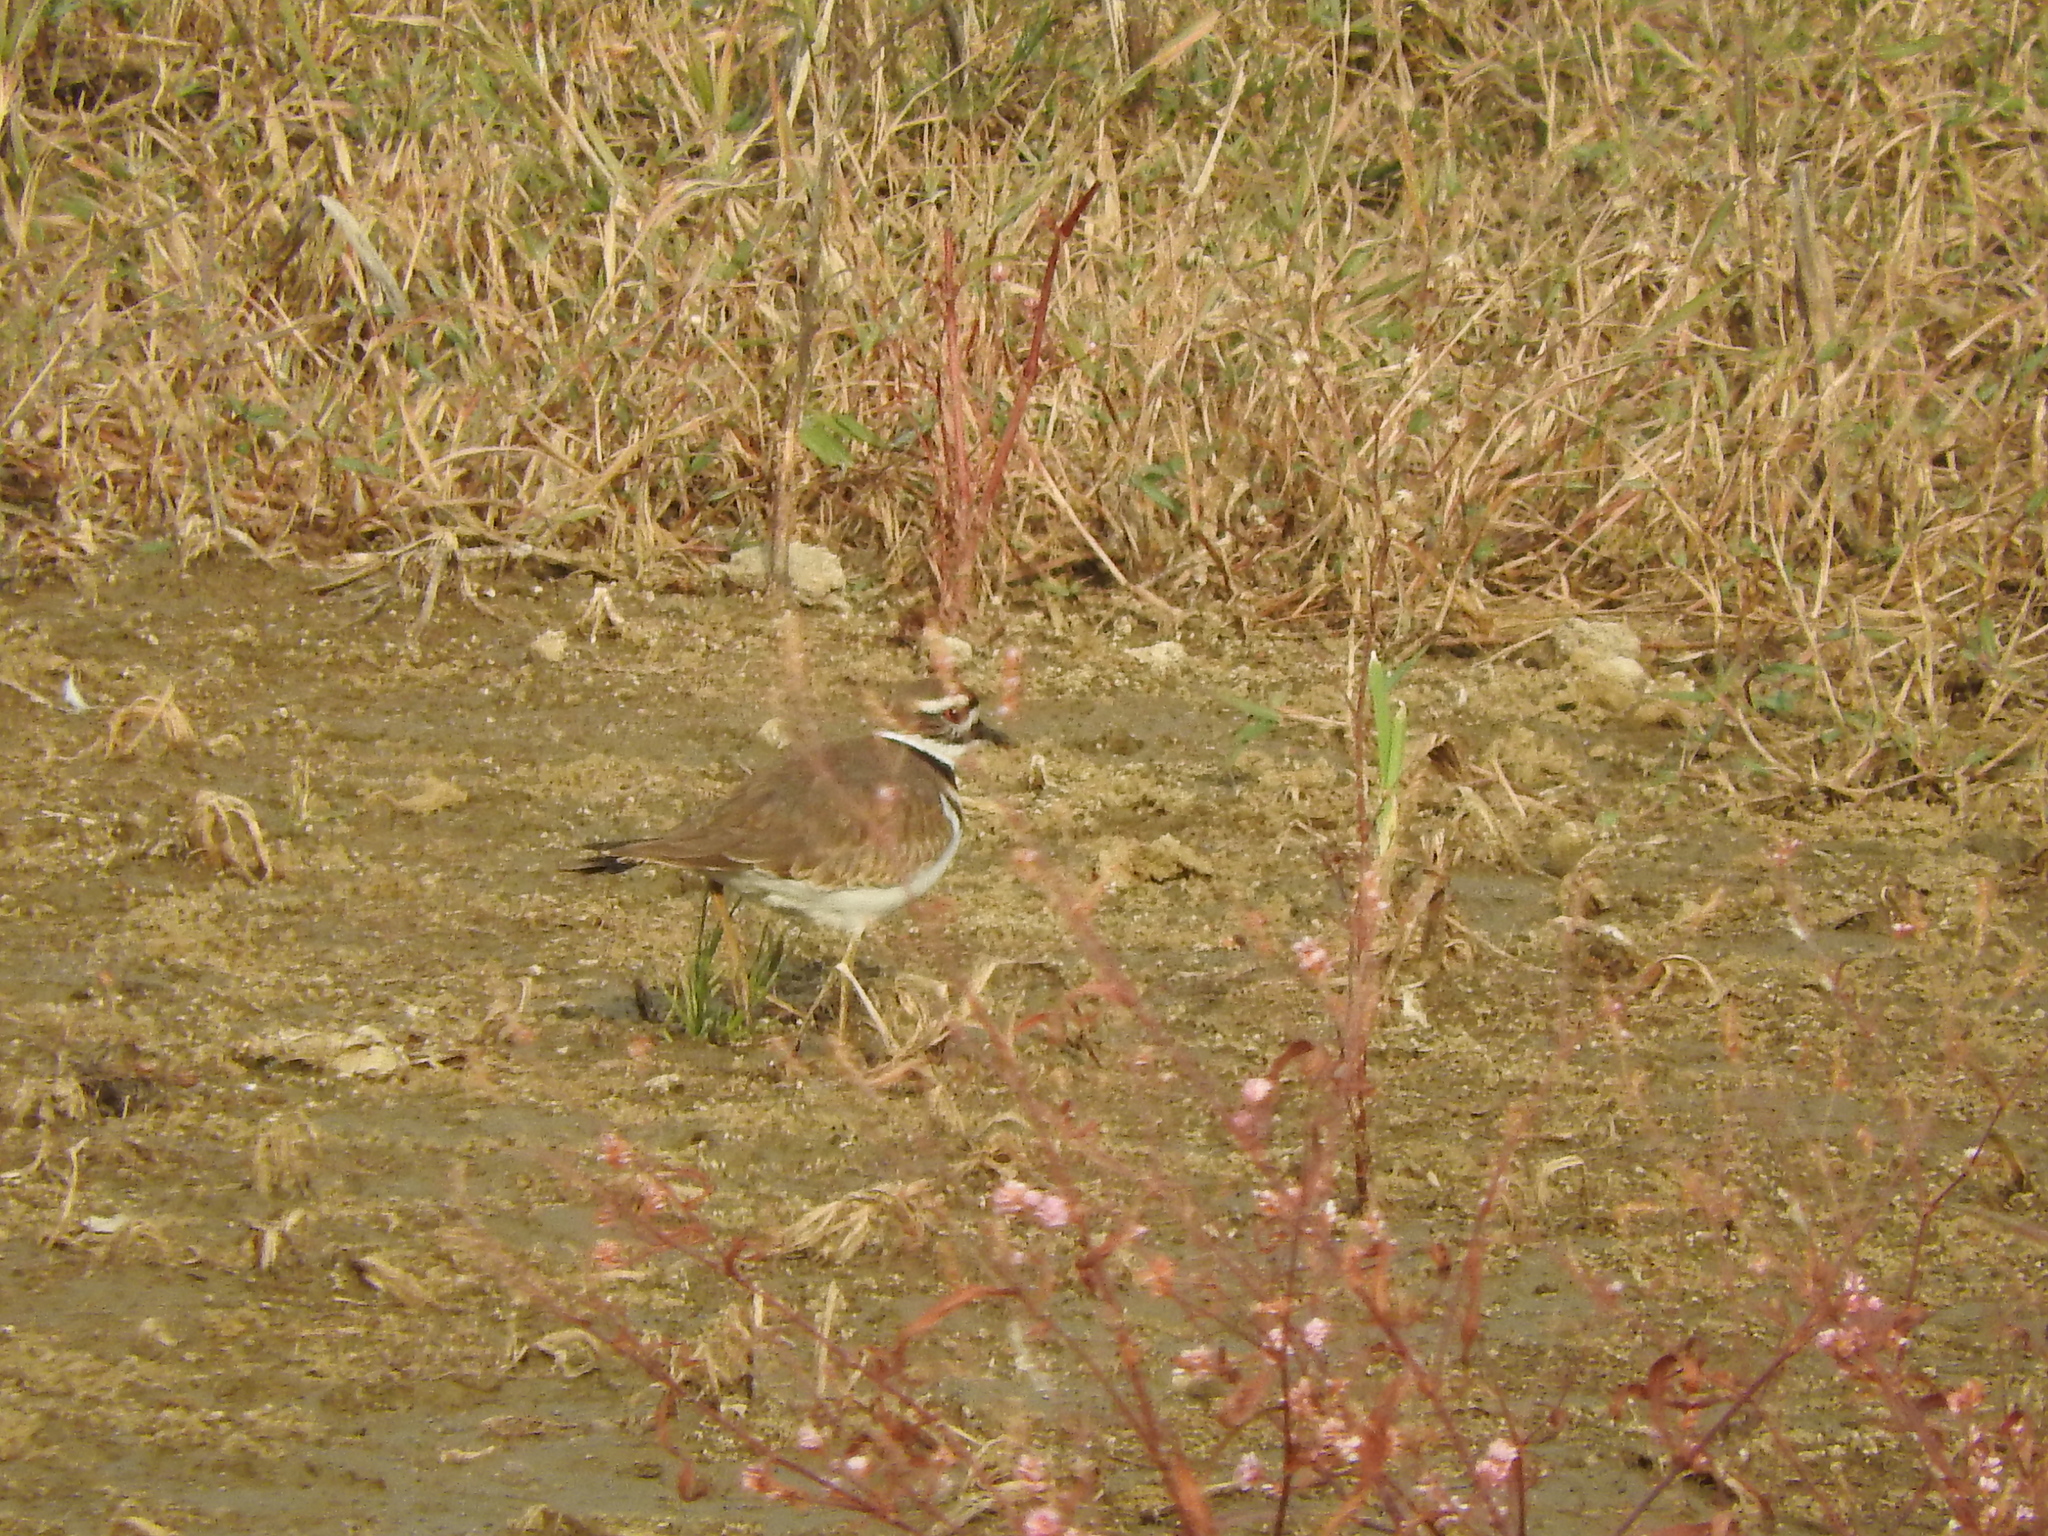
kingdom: Animalia
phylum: Chordata
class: Aves
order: Charadriiformes
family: Charadriidae
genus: Charadrius
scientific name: Charadrius vociferus
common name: Killdeer
